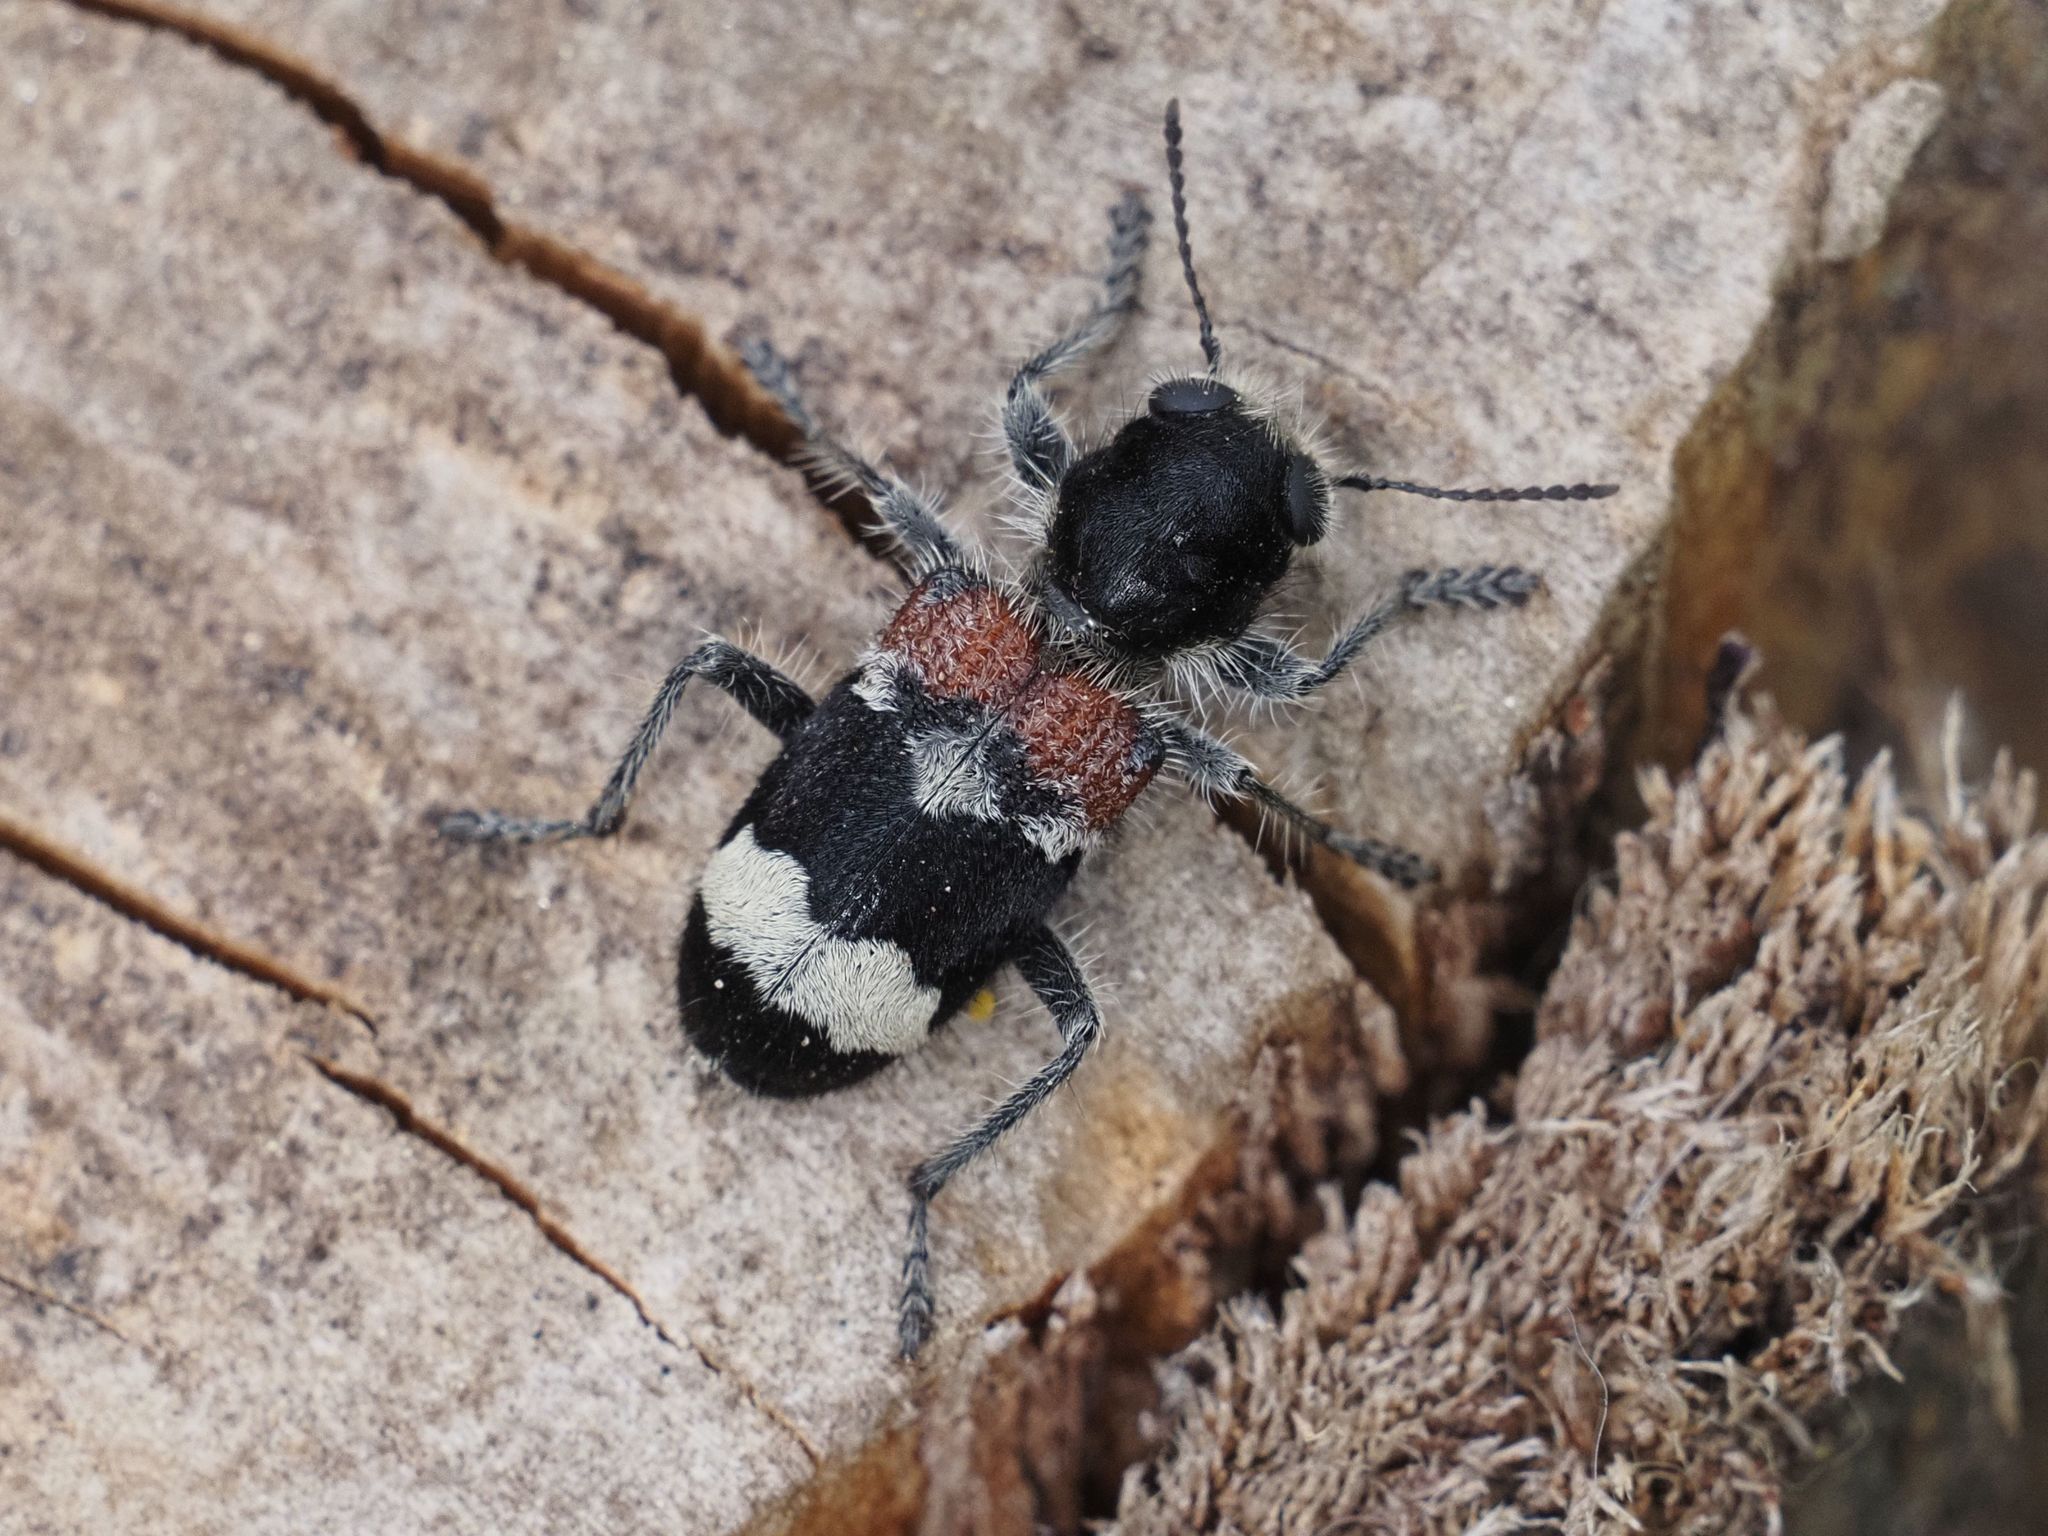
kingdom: Animalia
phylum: Arthropoda
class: Insecta
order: Coleoptera
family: Cleridae
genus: Clerus
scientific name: Clerus mutillarius
